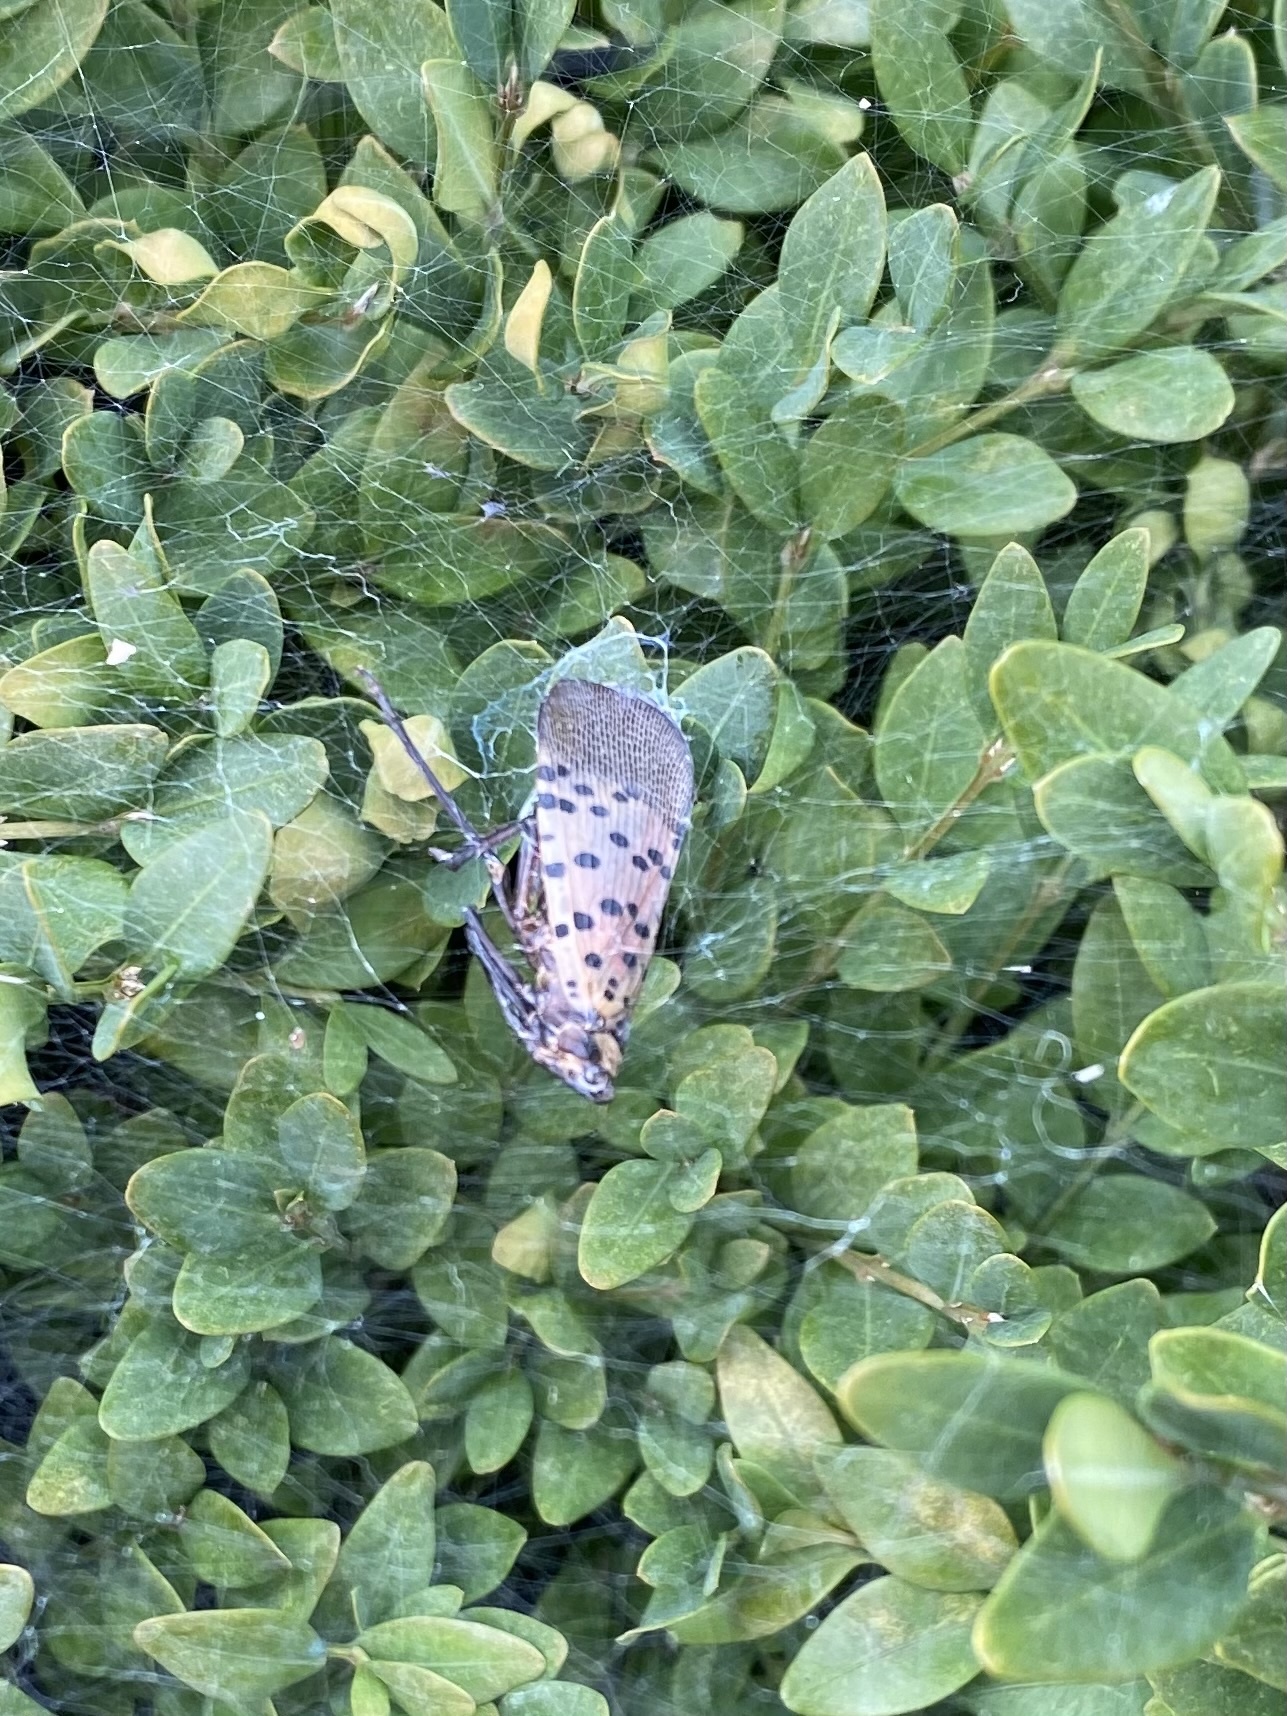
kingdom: Animalia
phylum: Arthropoda
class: Insecta
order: Hemiptera
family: Fulgoridae
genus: Lycorma
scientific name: Lycorma delicatula
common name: Spotted lanternfly
